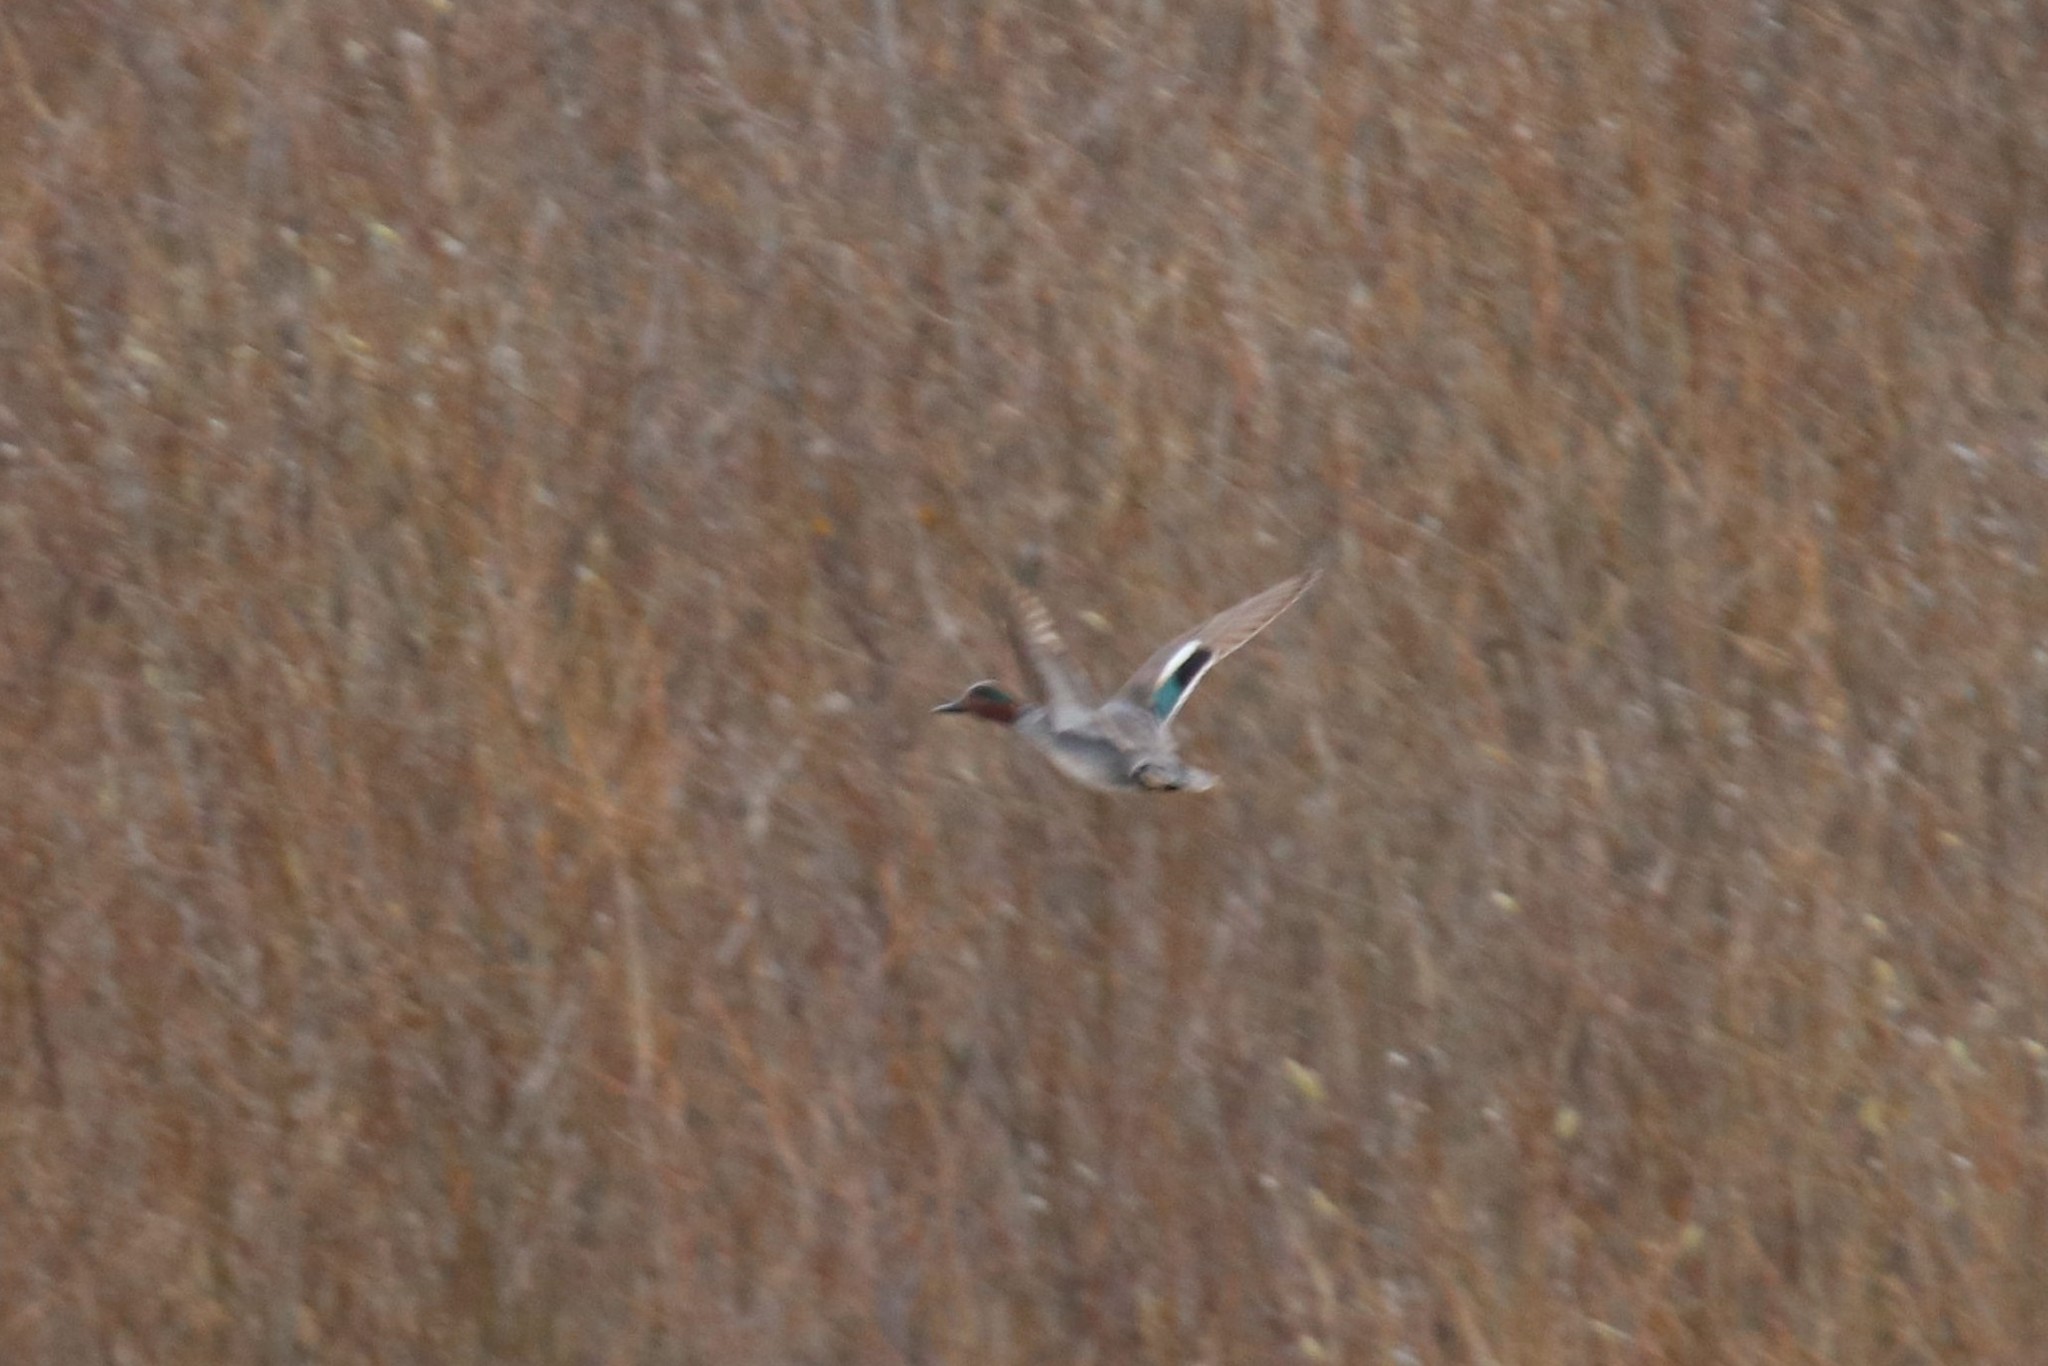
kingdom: Animalia
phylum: Chordata
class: Aves
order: Anseriformes
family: Anatidae
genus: Anas
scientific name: Anas crecca
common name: Eurasian teal
